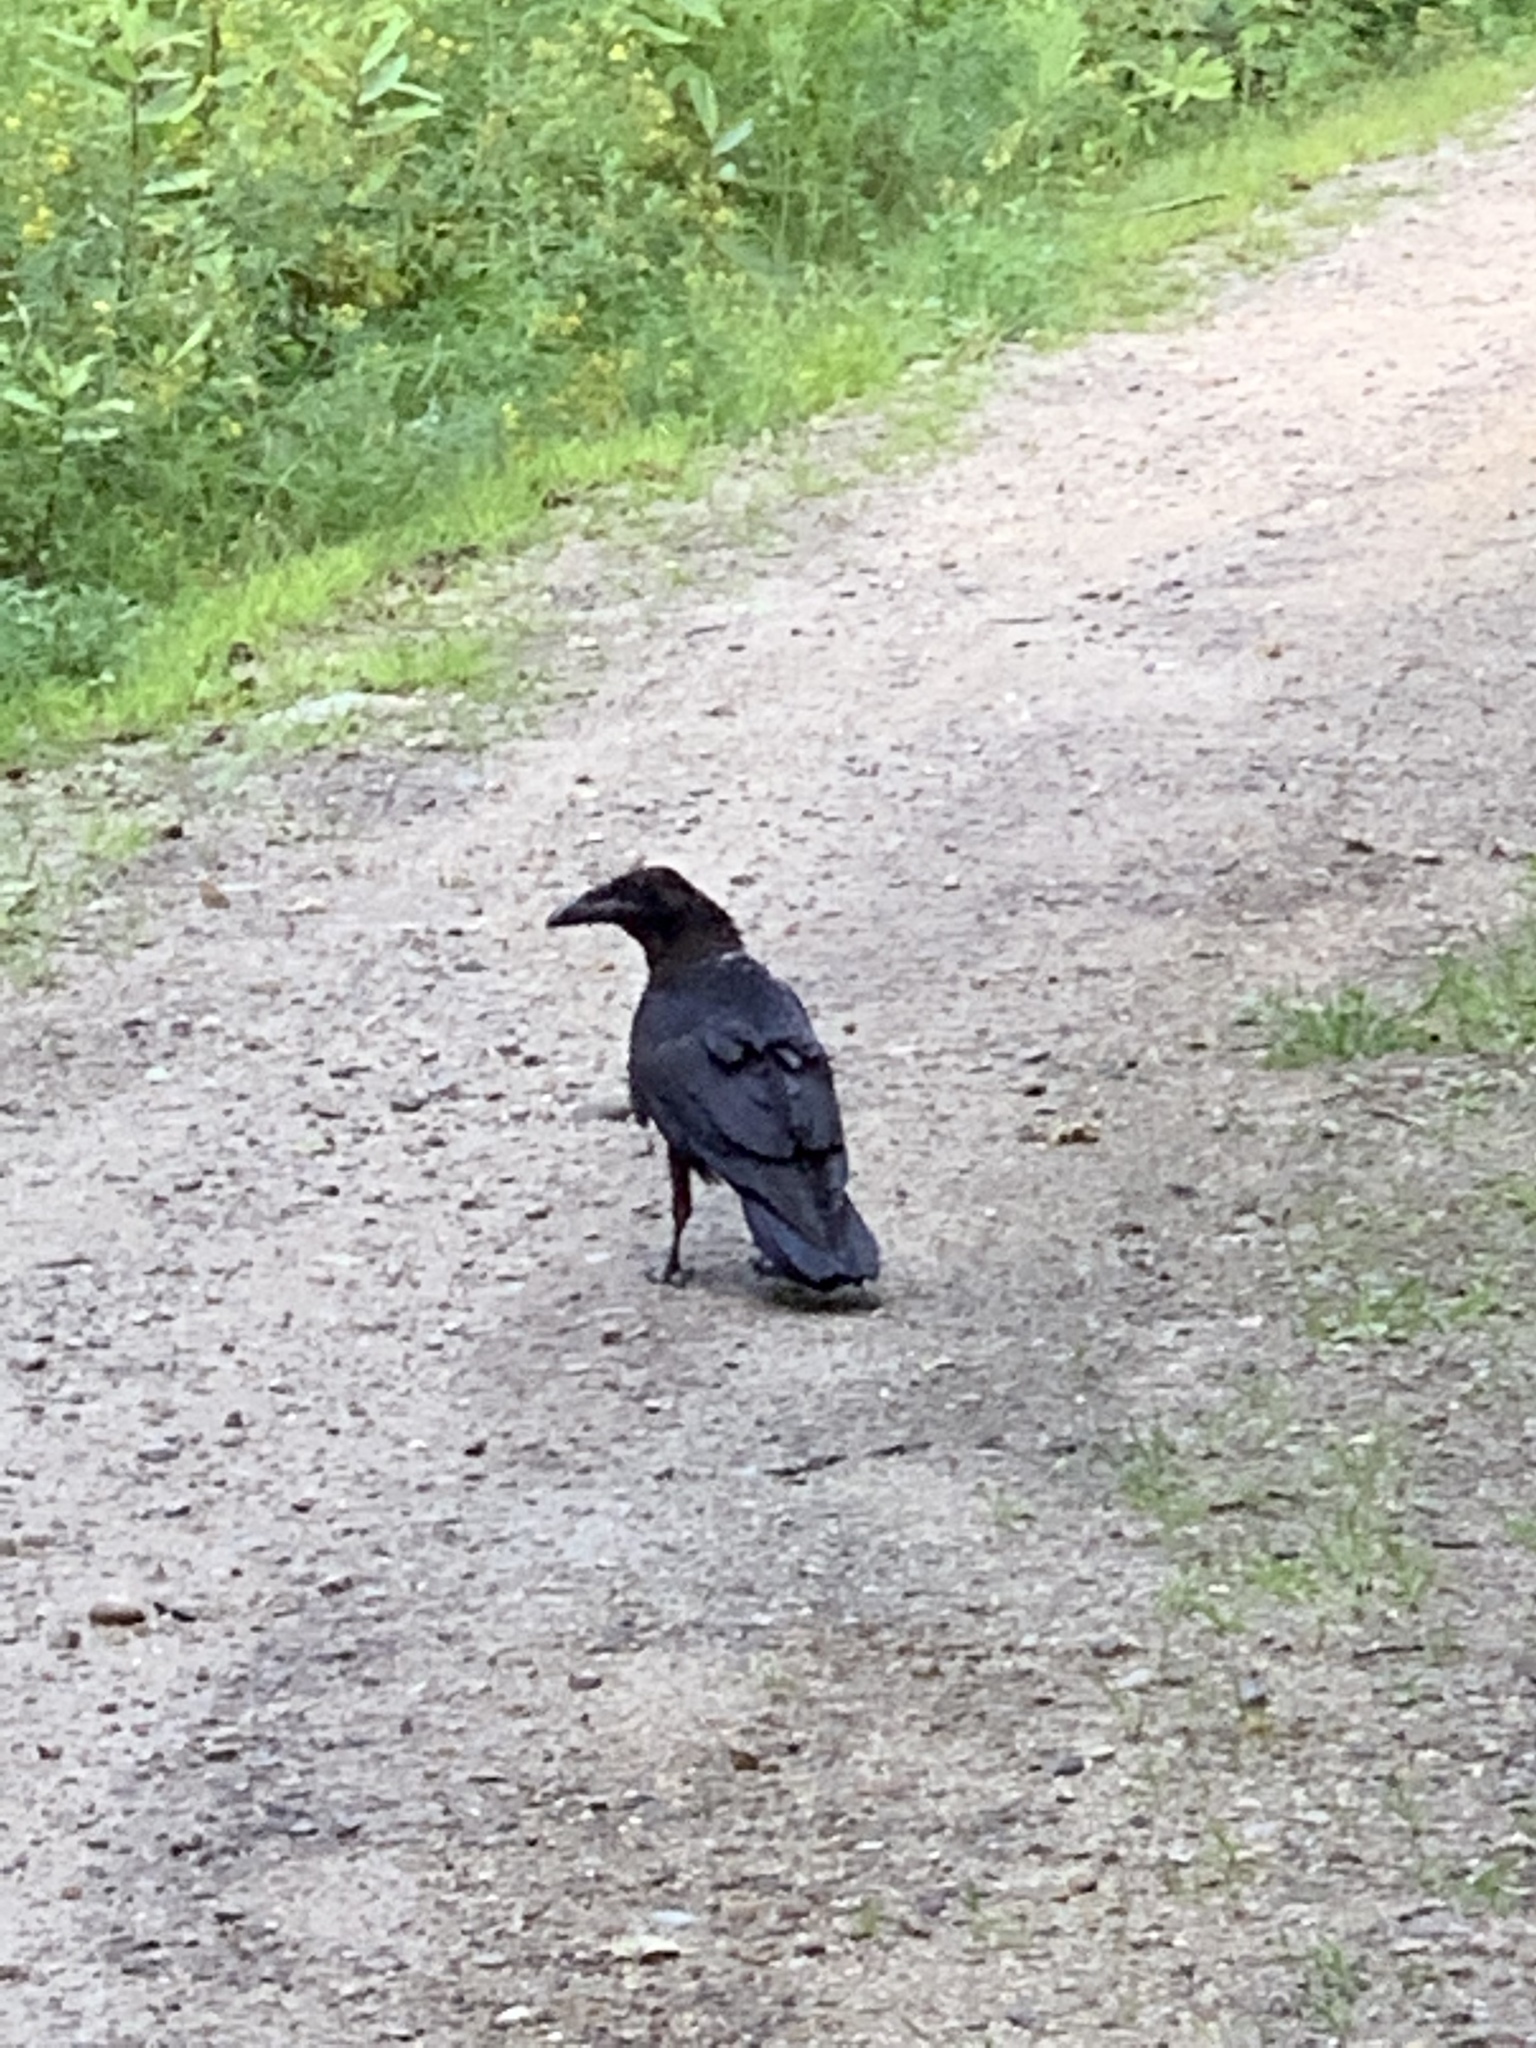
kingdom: Animalia
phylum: Chordata
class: Aves
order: Passeriformes
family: Corvidae
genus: Corvus
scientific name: Corvus corax
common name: Common raven
